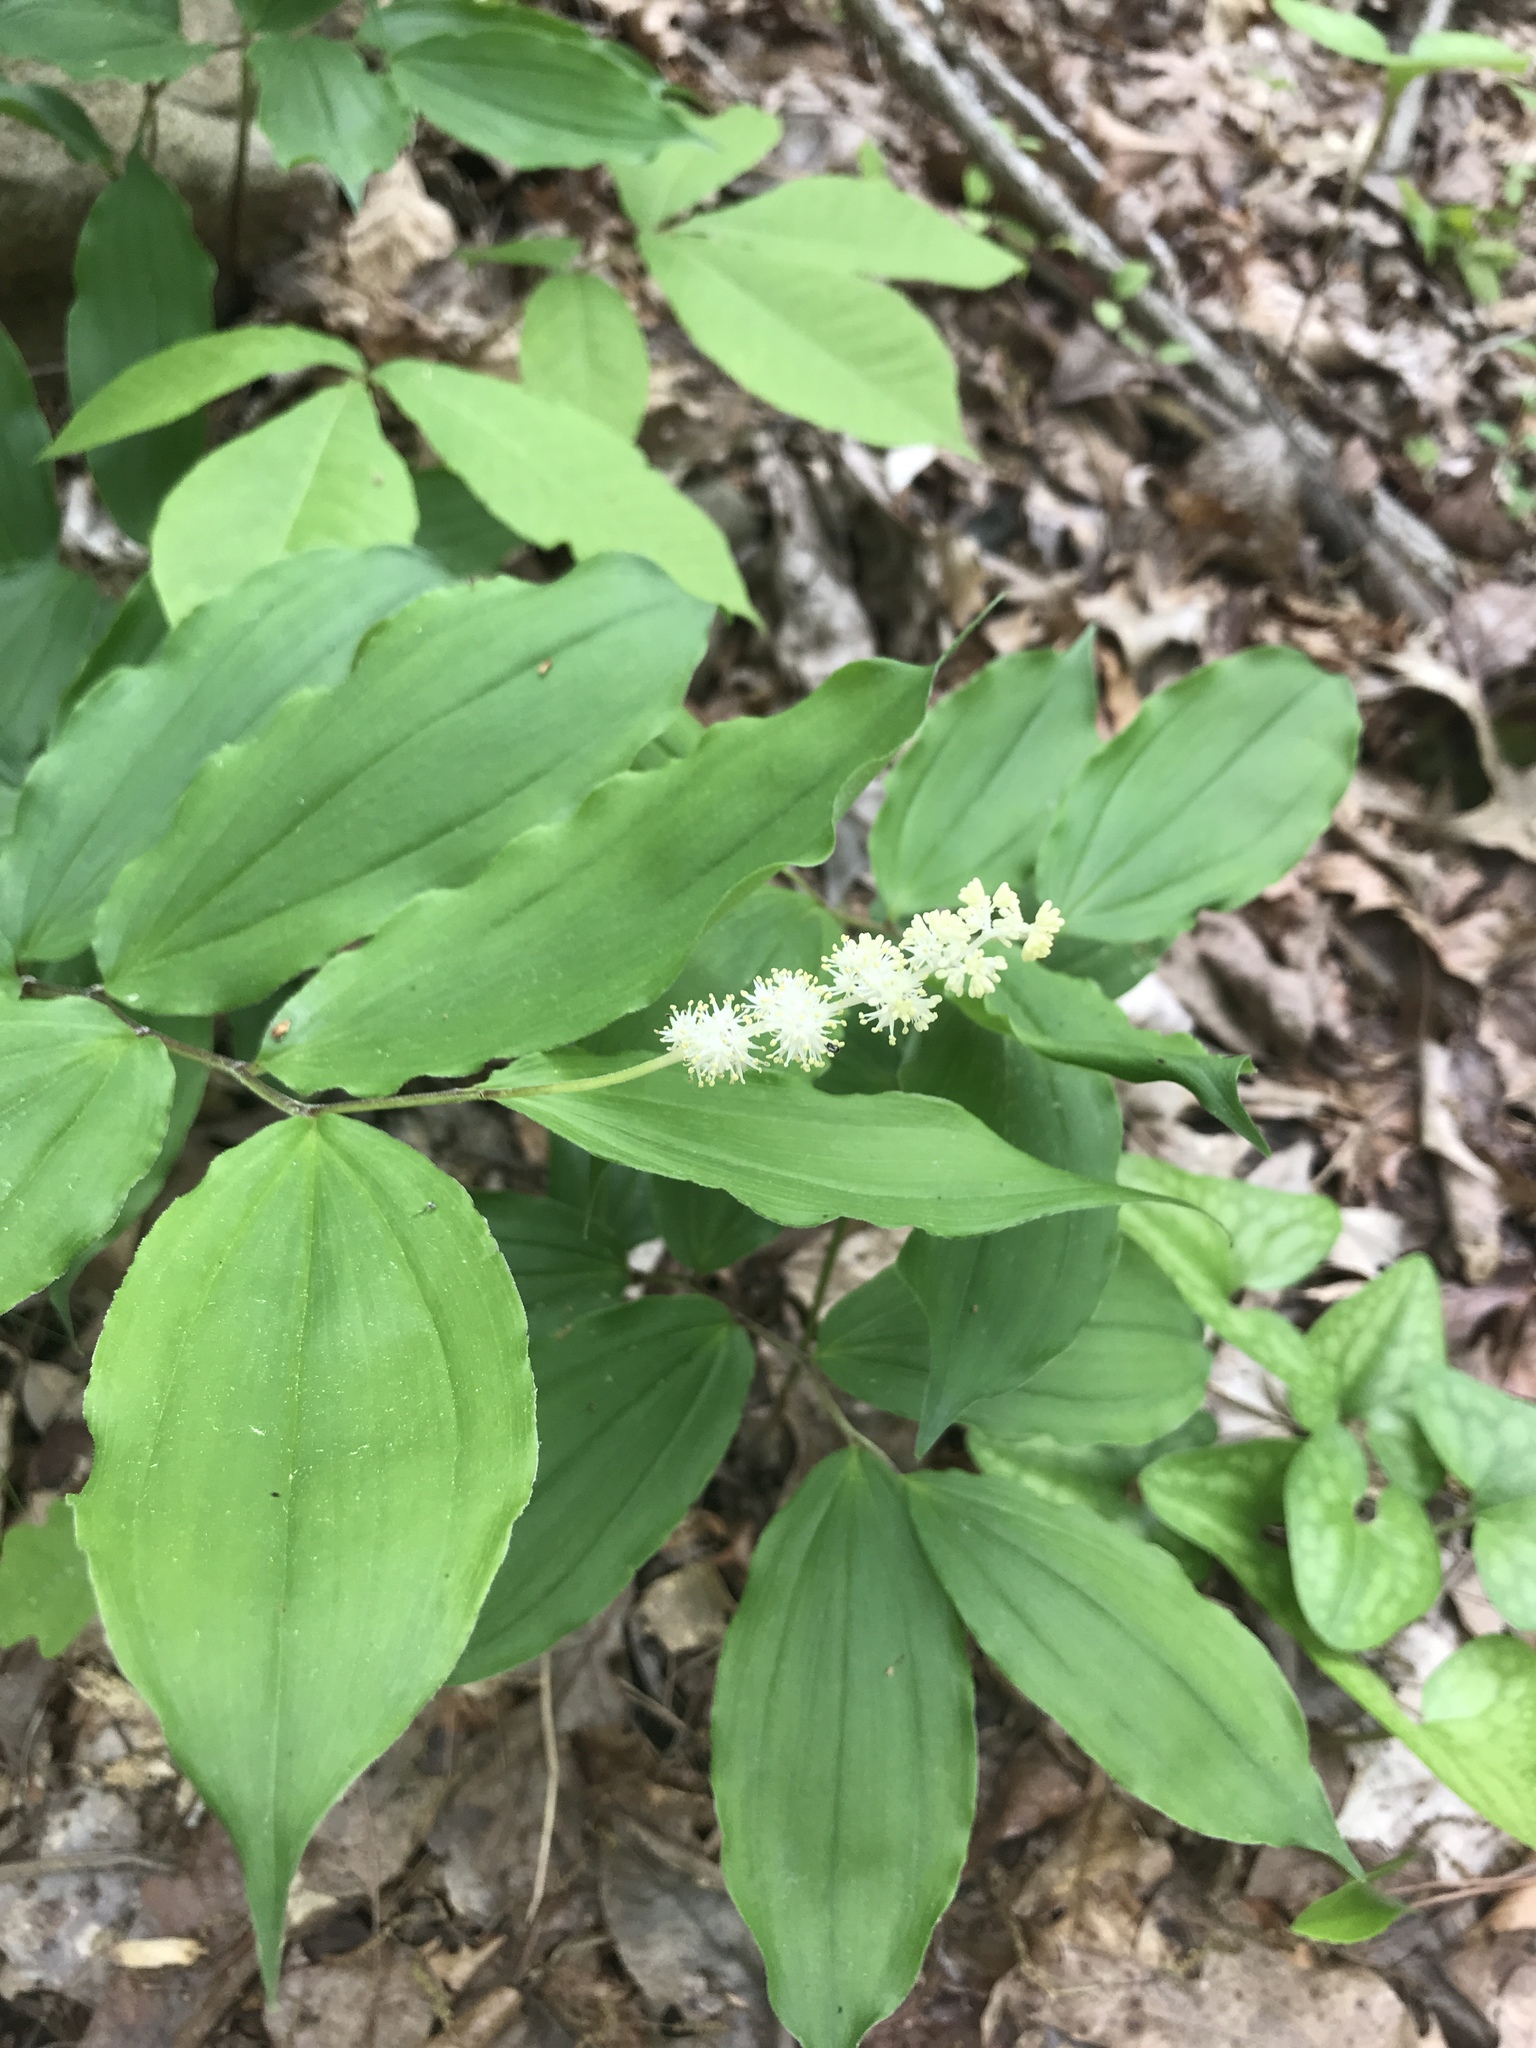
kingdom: Plantae
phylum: Tracheophyta
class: Liliopsida
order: Asparagales
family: Asparagaceae
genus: Maianthemum
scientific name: Maianthemum racemosum
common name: False spikenard
